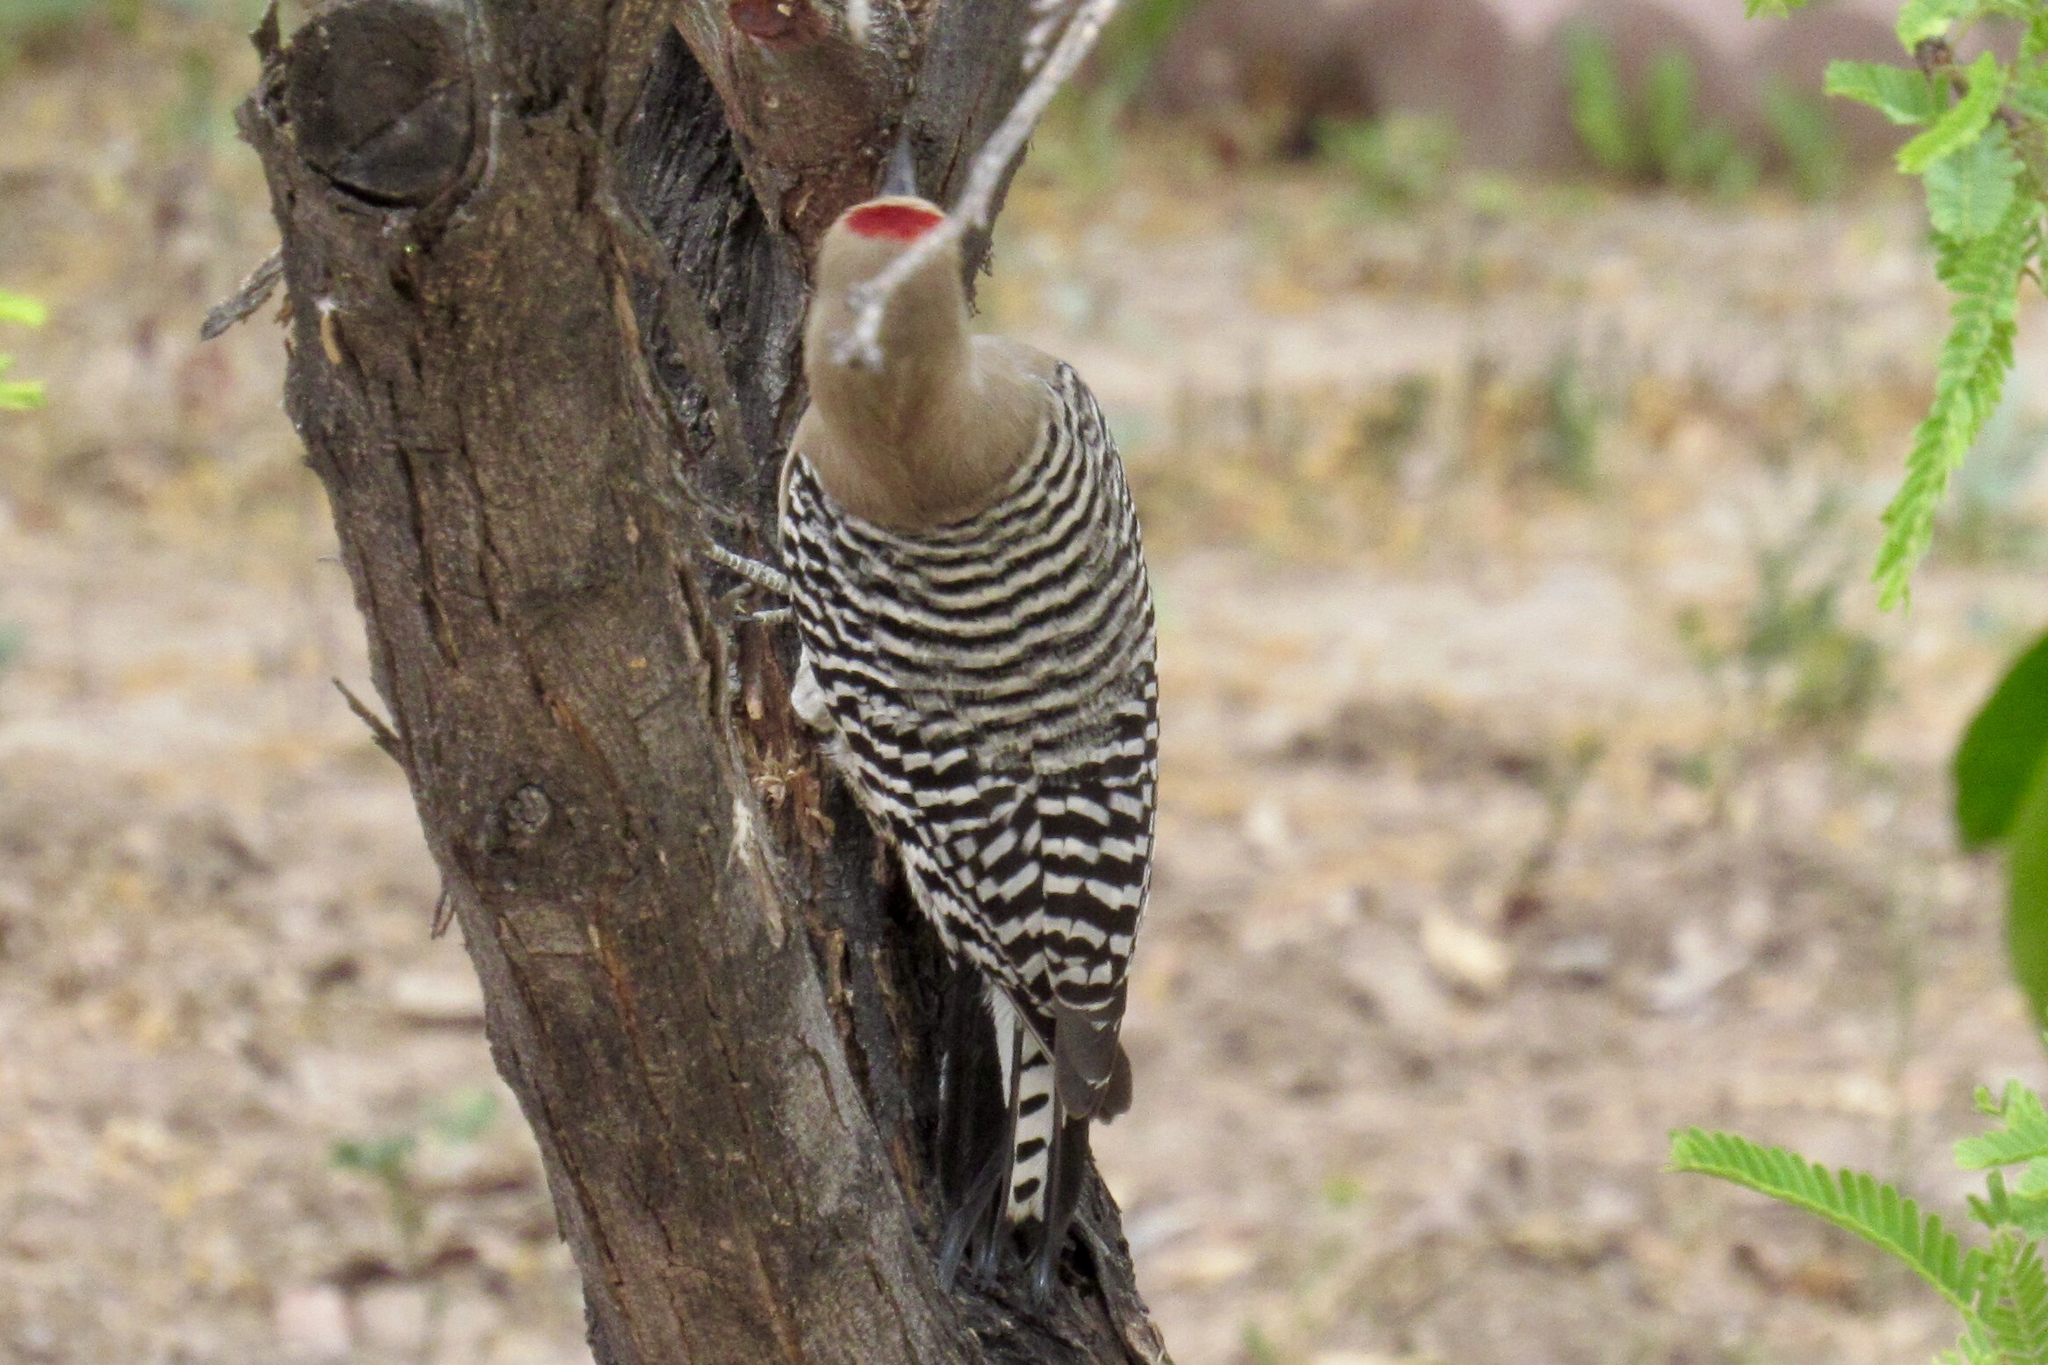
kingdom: Animalia
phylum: Chordata
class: Aves
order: Piciformes
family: Picidae
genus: Melanerpes
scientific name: Melanerpes uropygialis
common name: Gila woodpecker
